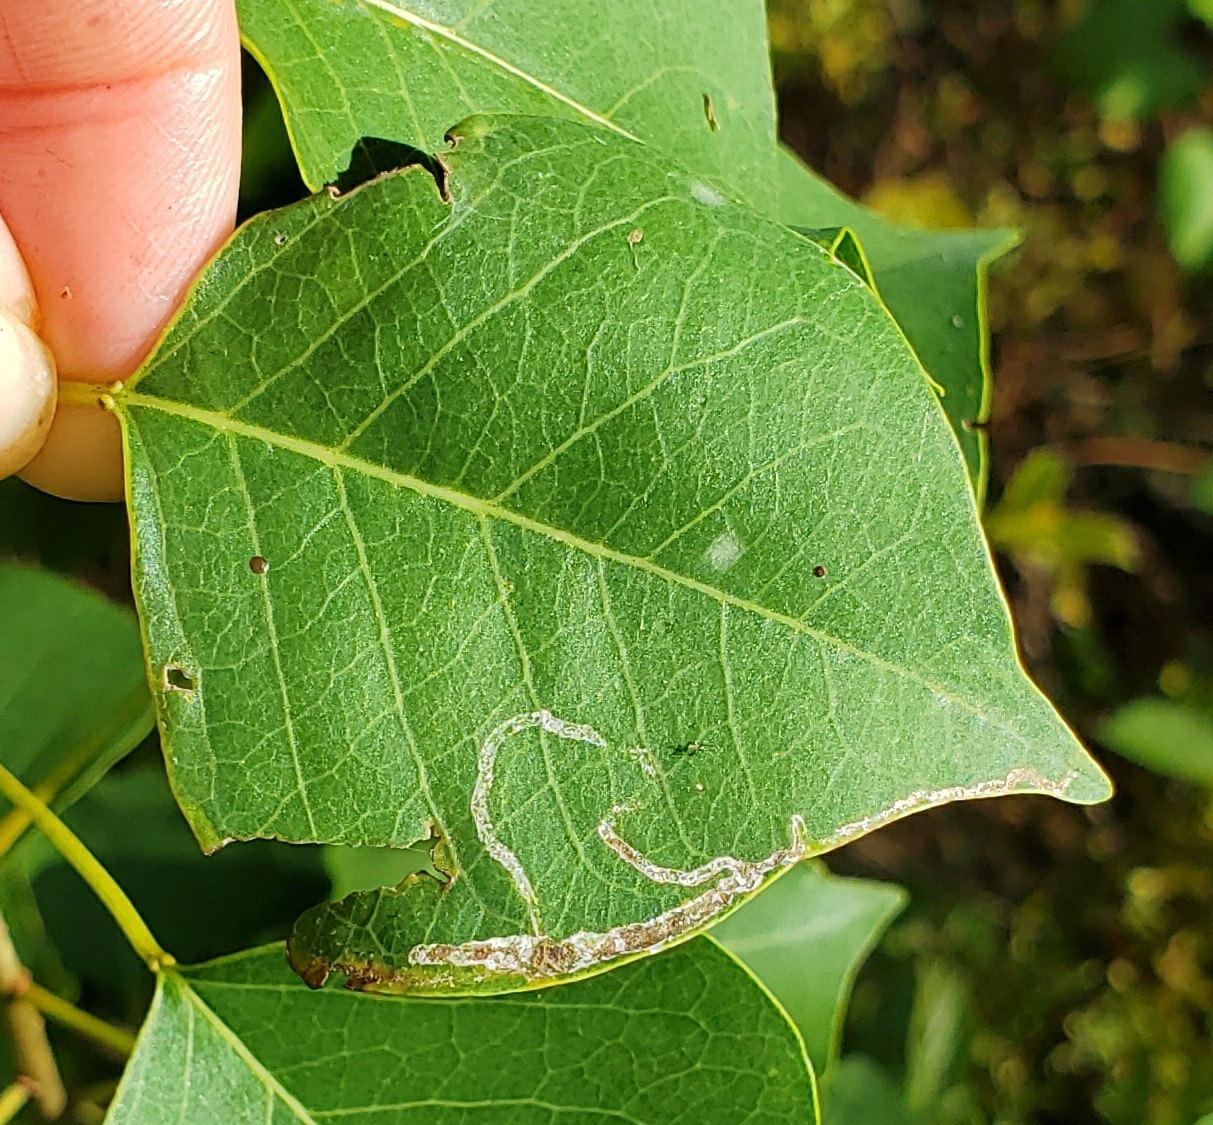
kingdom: Animalia
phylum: Arthropoda
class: Insecta
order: Lepidoptera
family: Gracillariidae
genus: Caloptilia
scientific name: Caloptilia triadicae
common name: Tallow leaf roller
